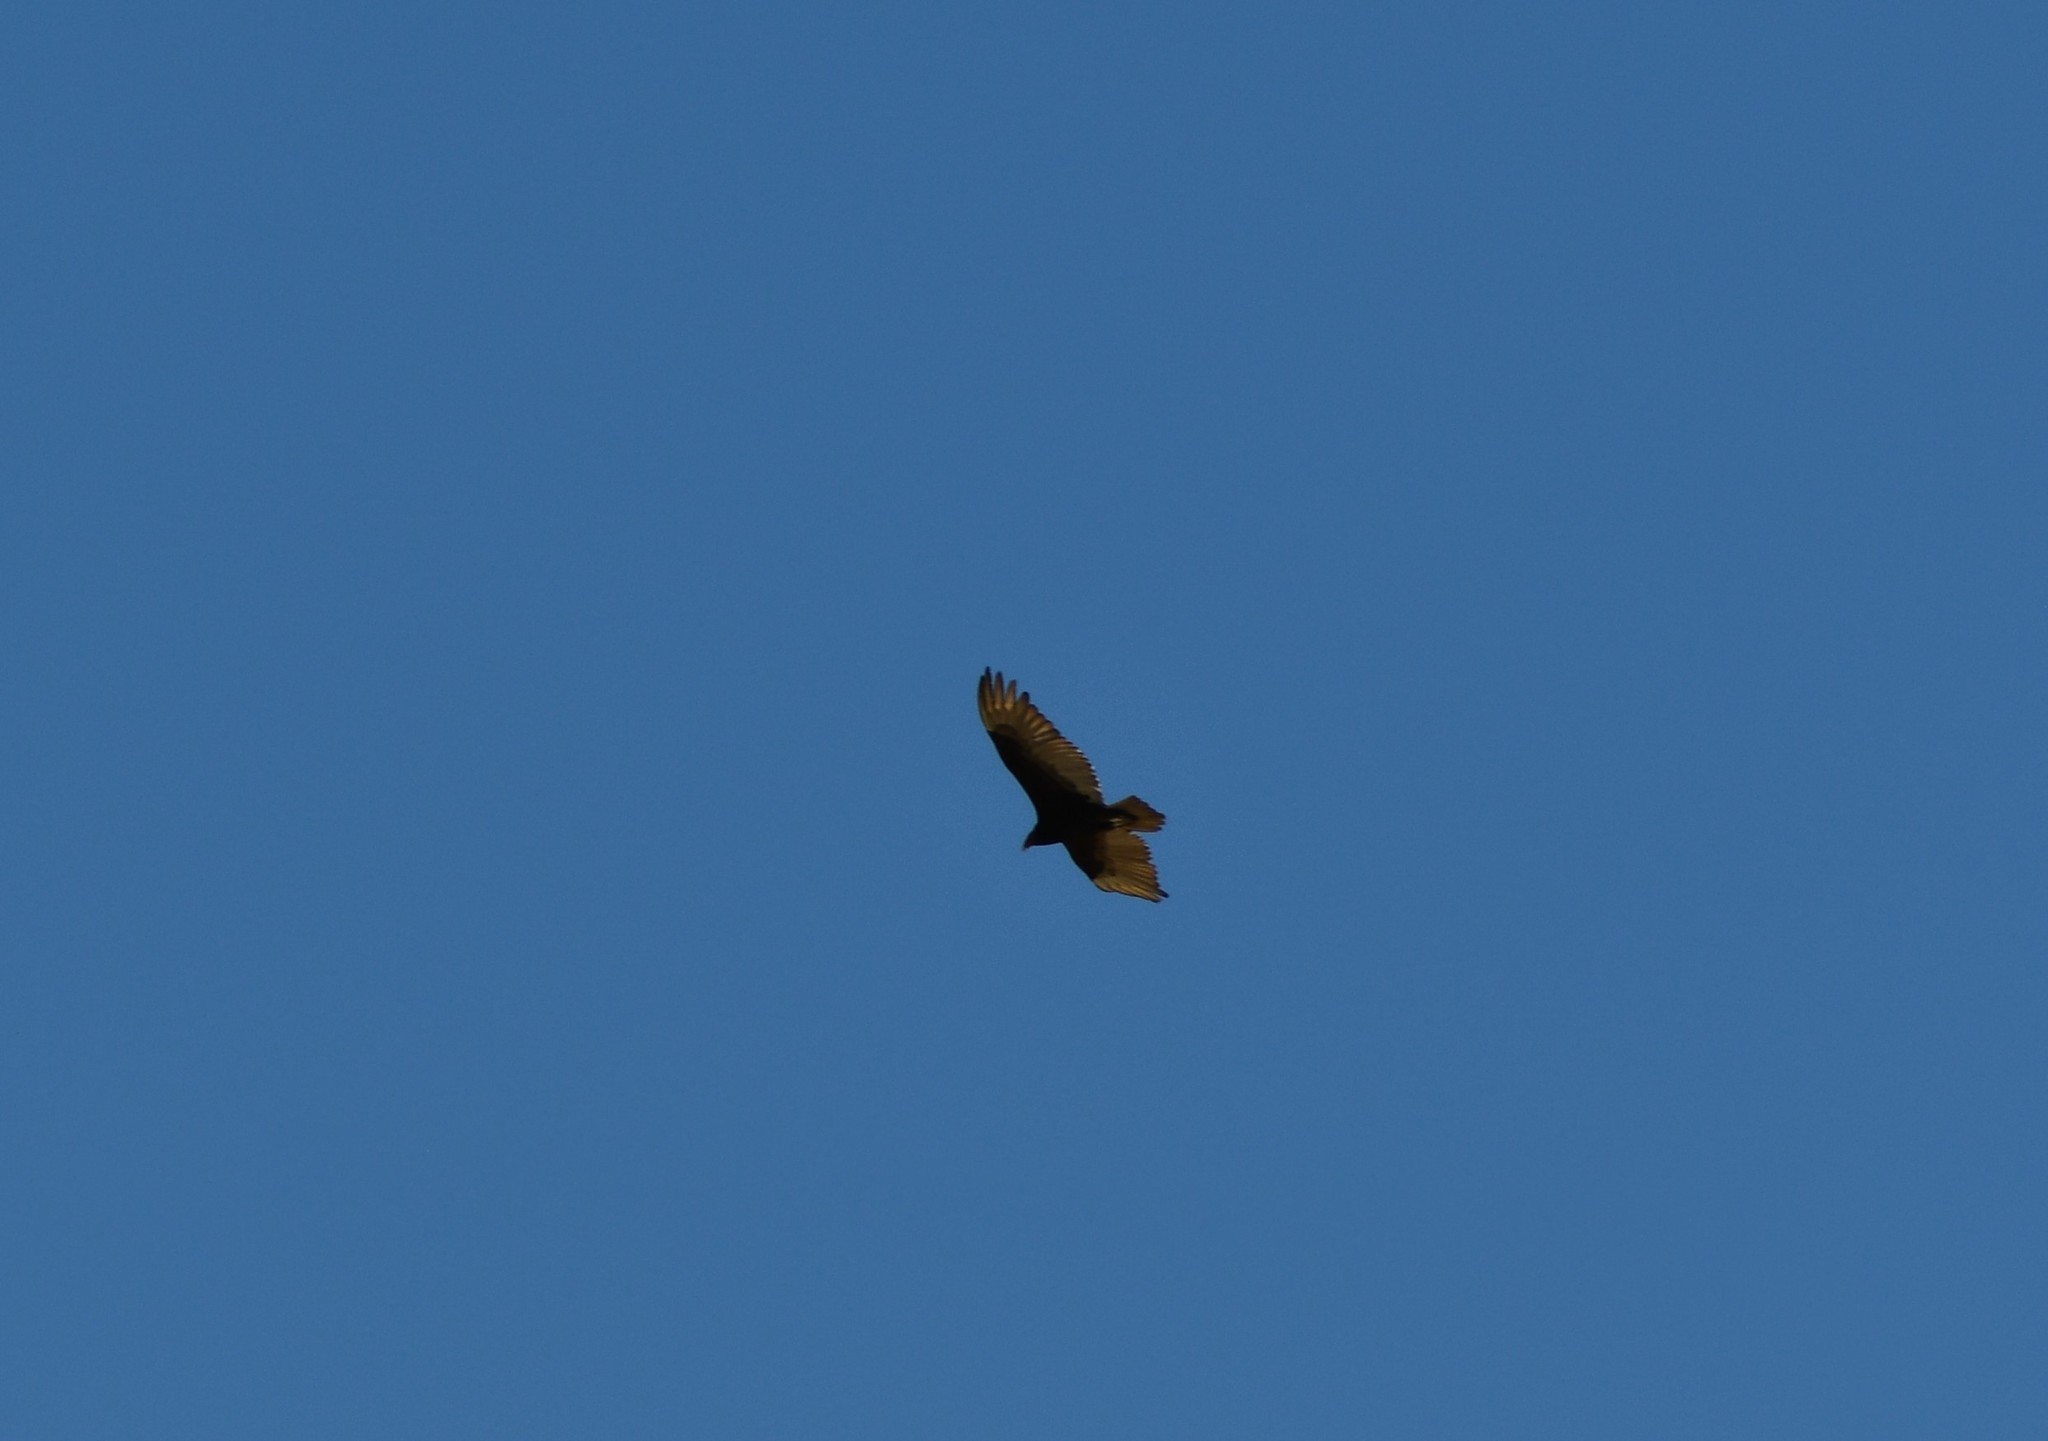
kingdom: Animalia
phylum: Chordata
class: Aves
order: Accipitriformes
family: Cathartidae
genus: Cathartes
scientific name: Cathartes aura
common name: Turkey vulture
